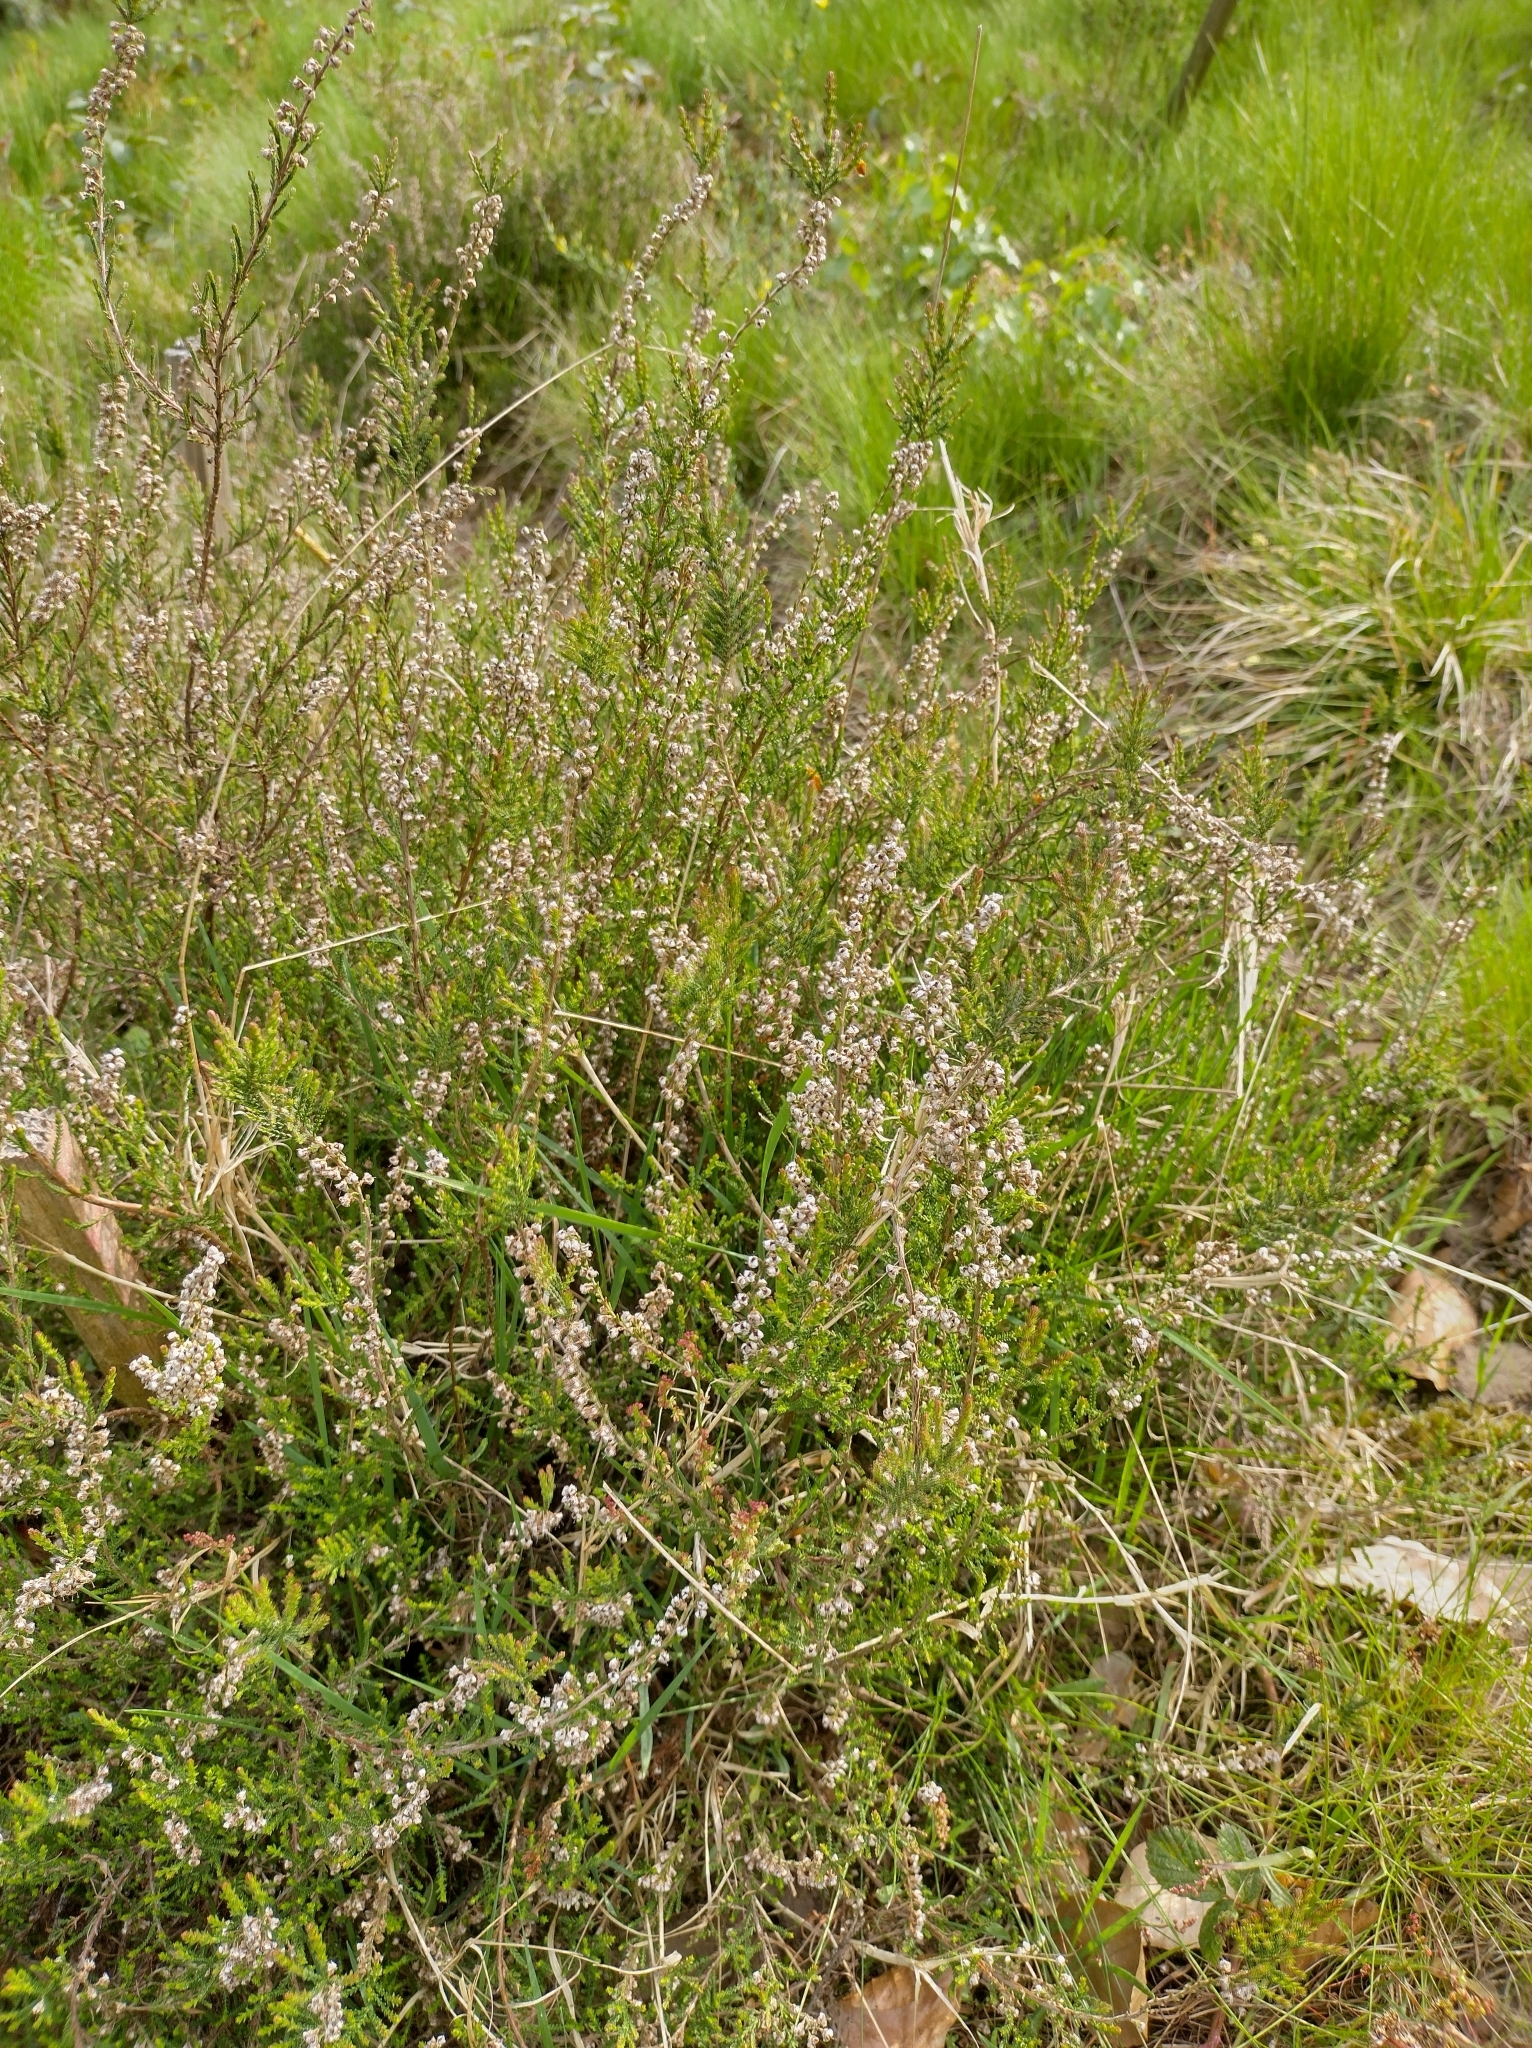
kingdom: Plantae
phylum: Tracheophyta
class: Magnoliopsida
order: Ericales
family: Ericaceae
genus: Calluna
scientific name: Calluna vulgaris
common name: Heather
